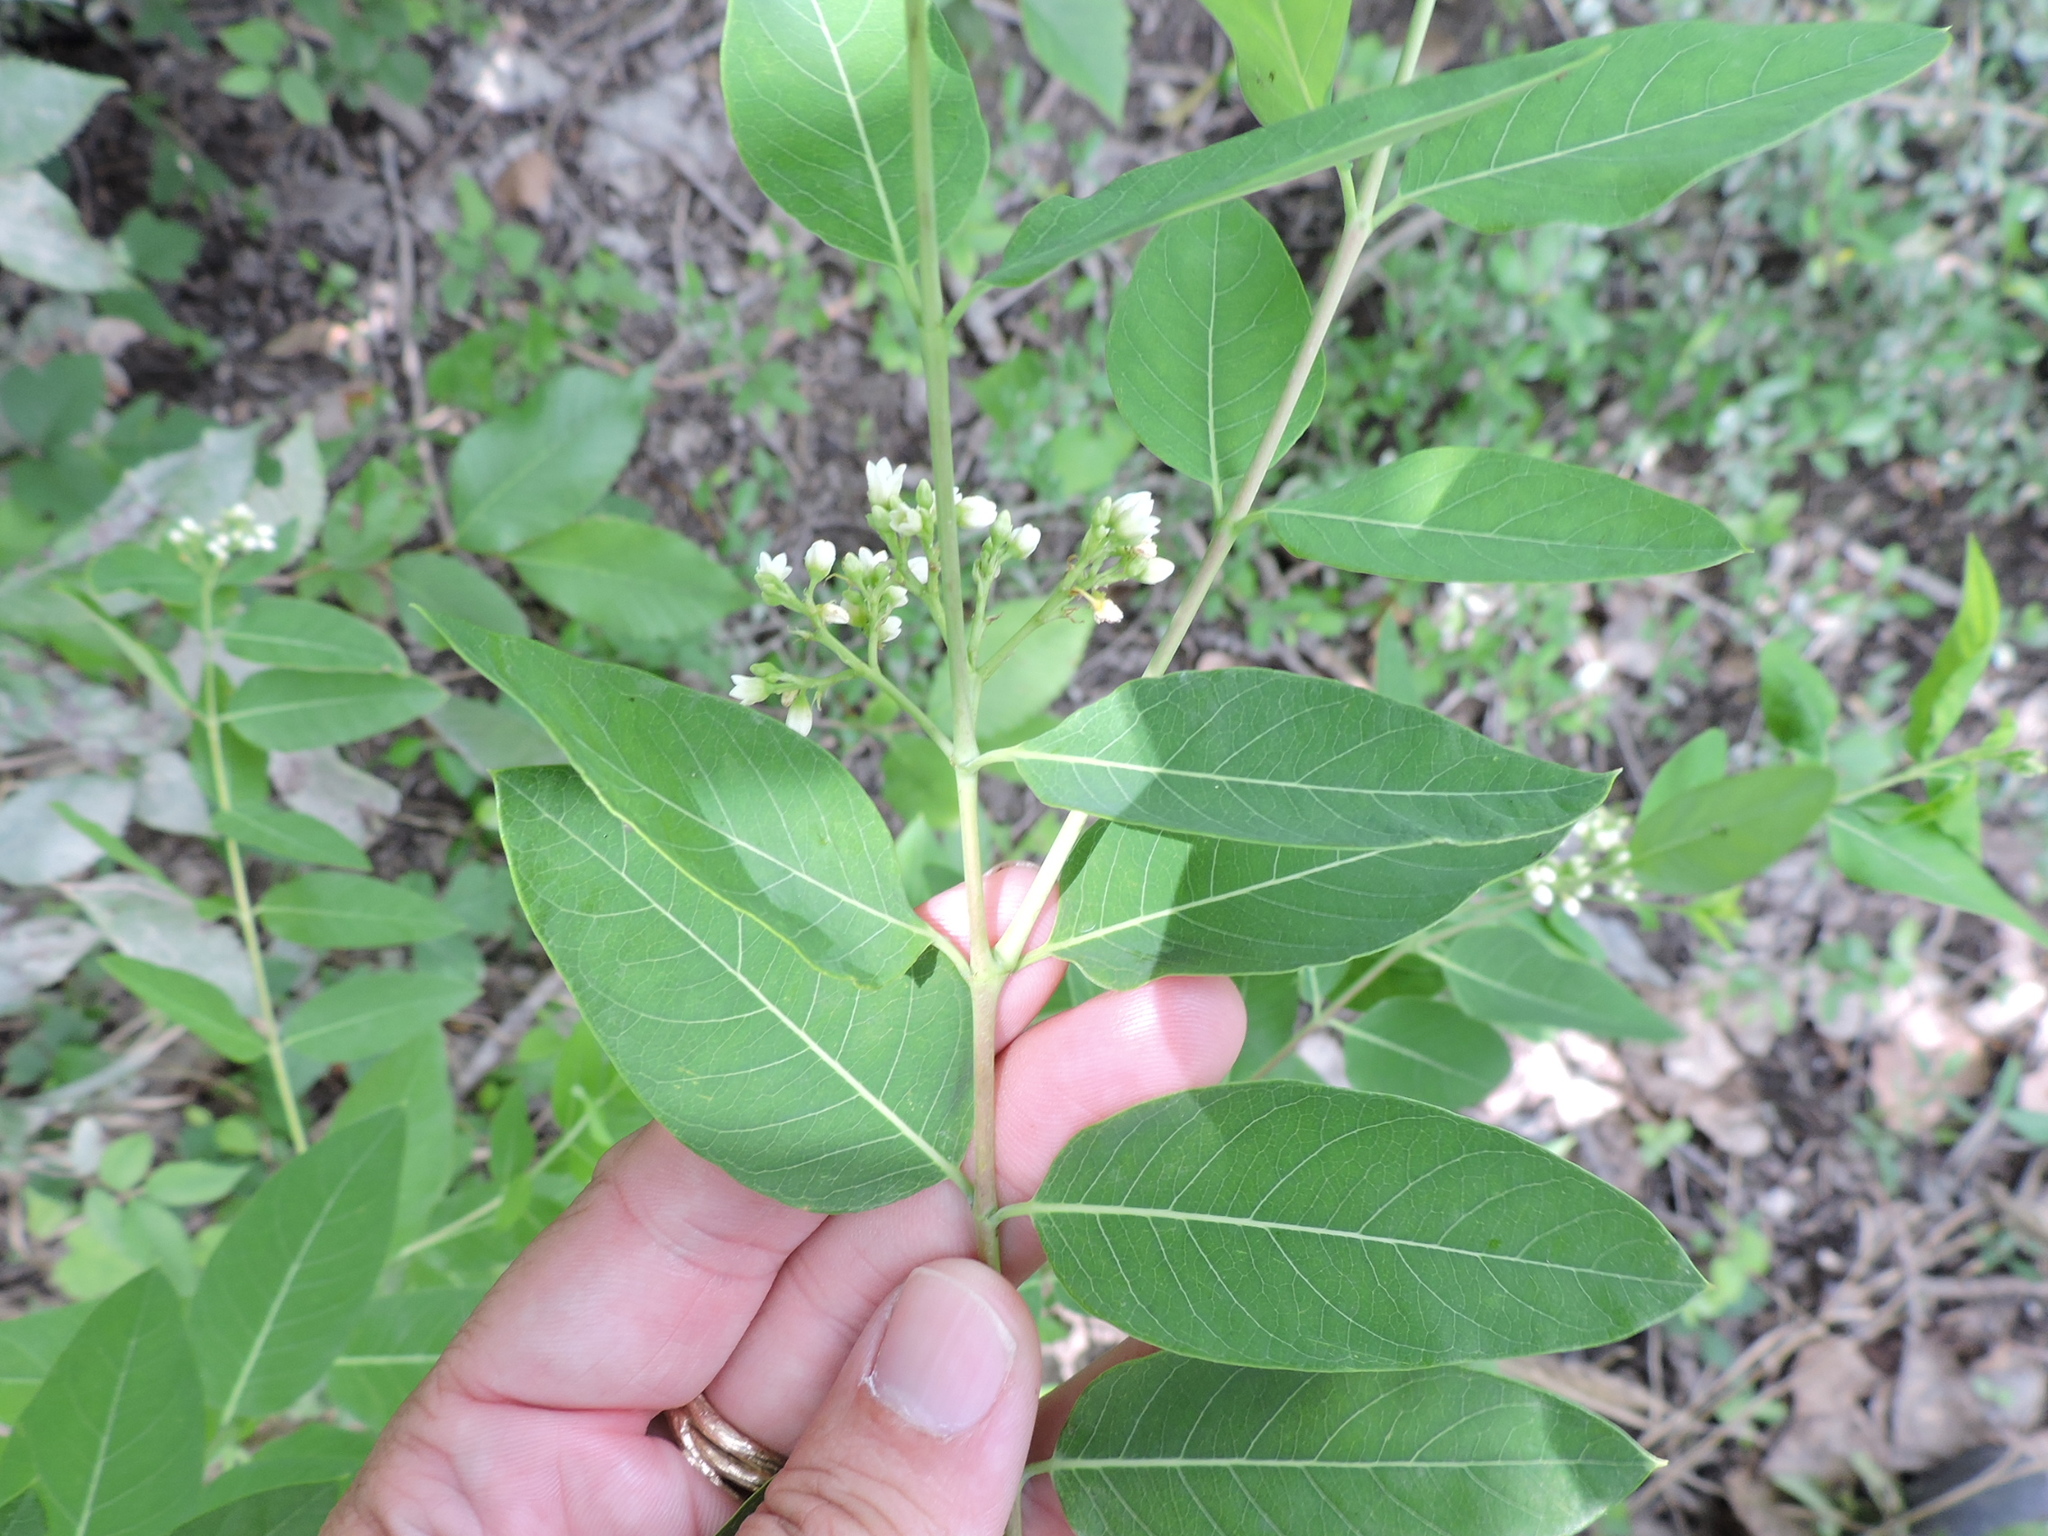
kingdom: Plantae
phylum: Tracheophyta
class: Magnoliopsida
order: Gentianales
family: Apocynaceae
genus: Apocynum
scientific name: Apocynum cannabinum
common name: Hemp dogbane
